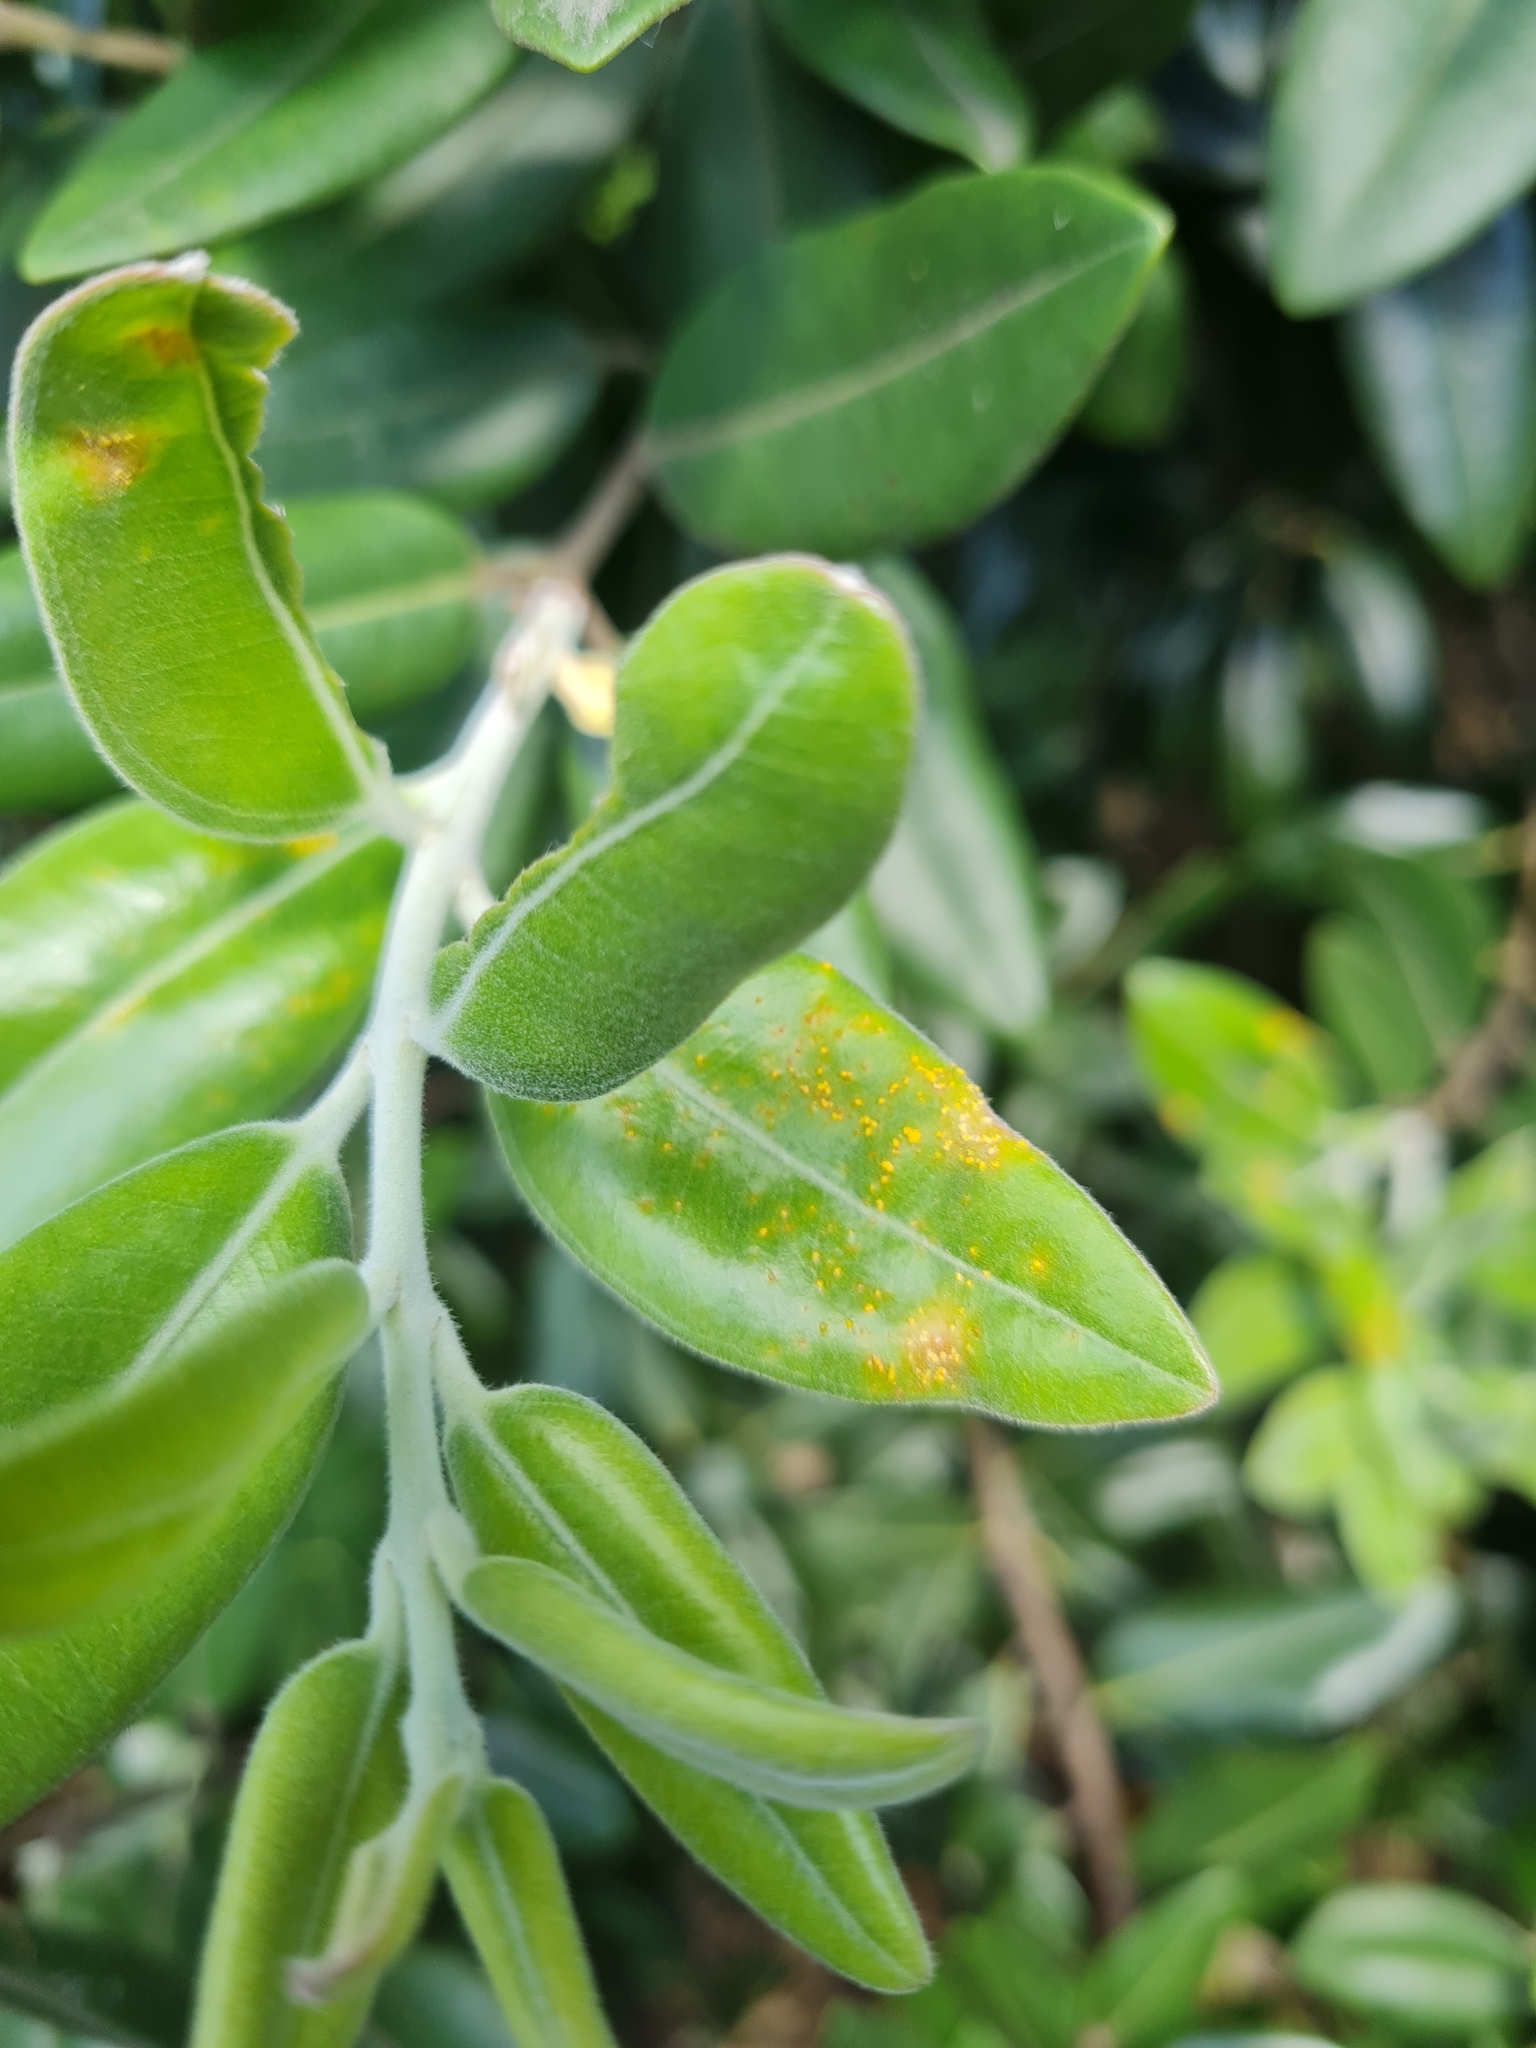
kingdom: Fungi
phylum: Basidiomycota
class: Pucciniomycetes
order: Pucciniales
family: Sphaerophragmiaceae
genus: Austropuccinia
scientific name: Austropuccinia psidii
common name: Myrtle rust
